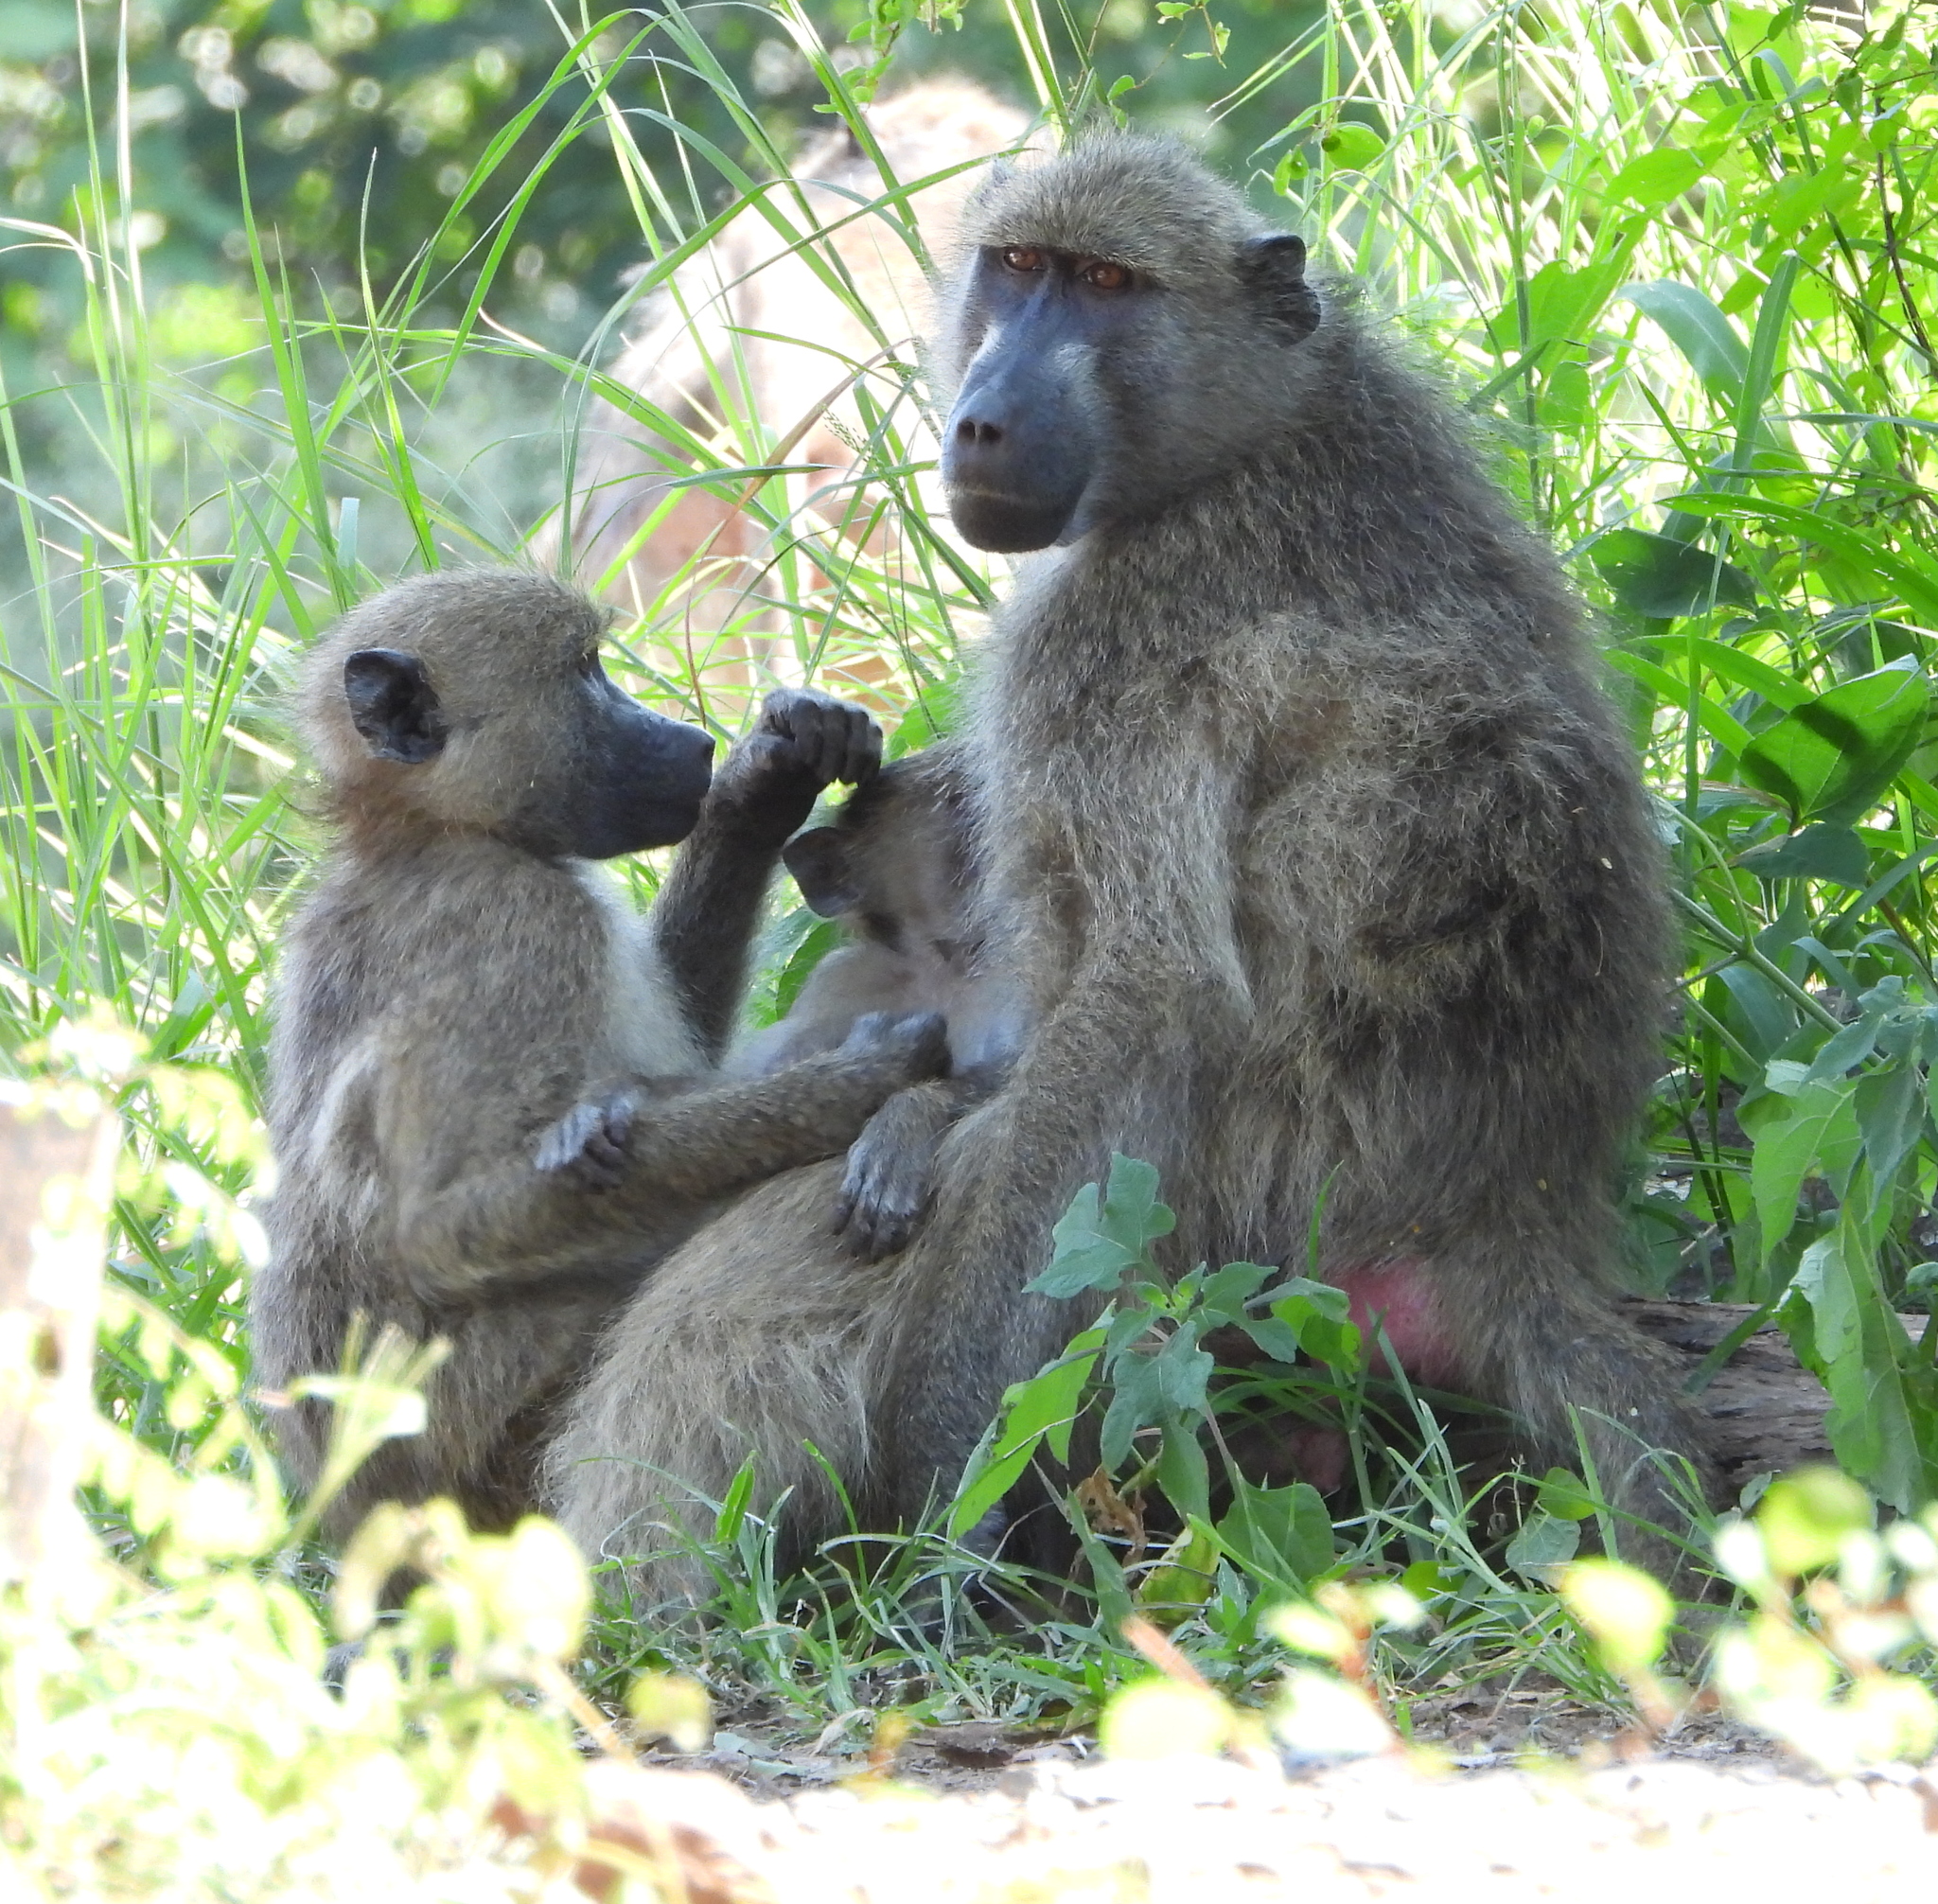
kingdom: Animalia
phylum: Chordata
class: Mammalia
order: Primates
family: Cercopithecidae
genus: Papio
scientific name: Papio ursinus
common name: Chacma baboon
